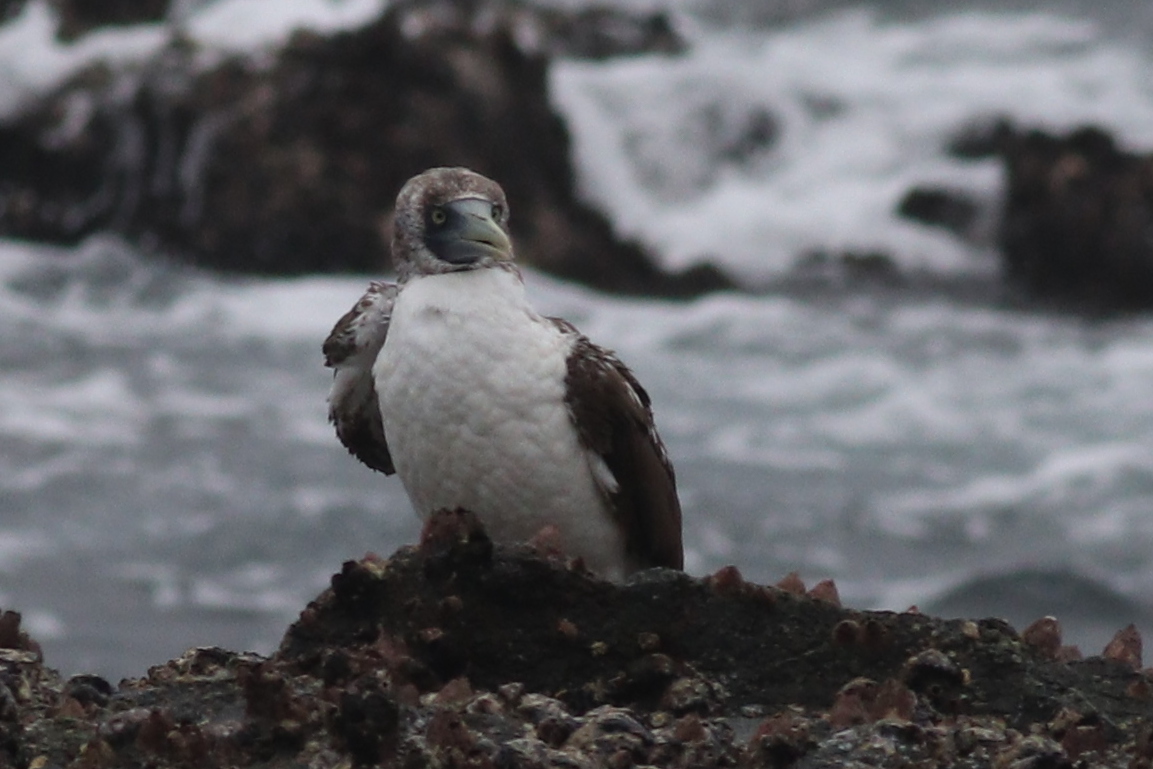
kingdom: Animalia
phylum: Chordata
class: Aves
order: Suliformes
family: Sulidae
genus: Sula
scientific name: Sula dactylatra
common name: Masked booby
